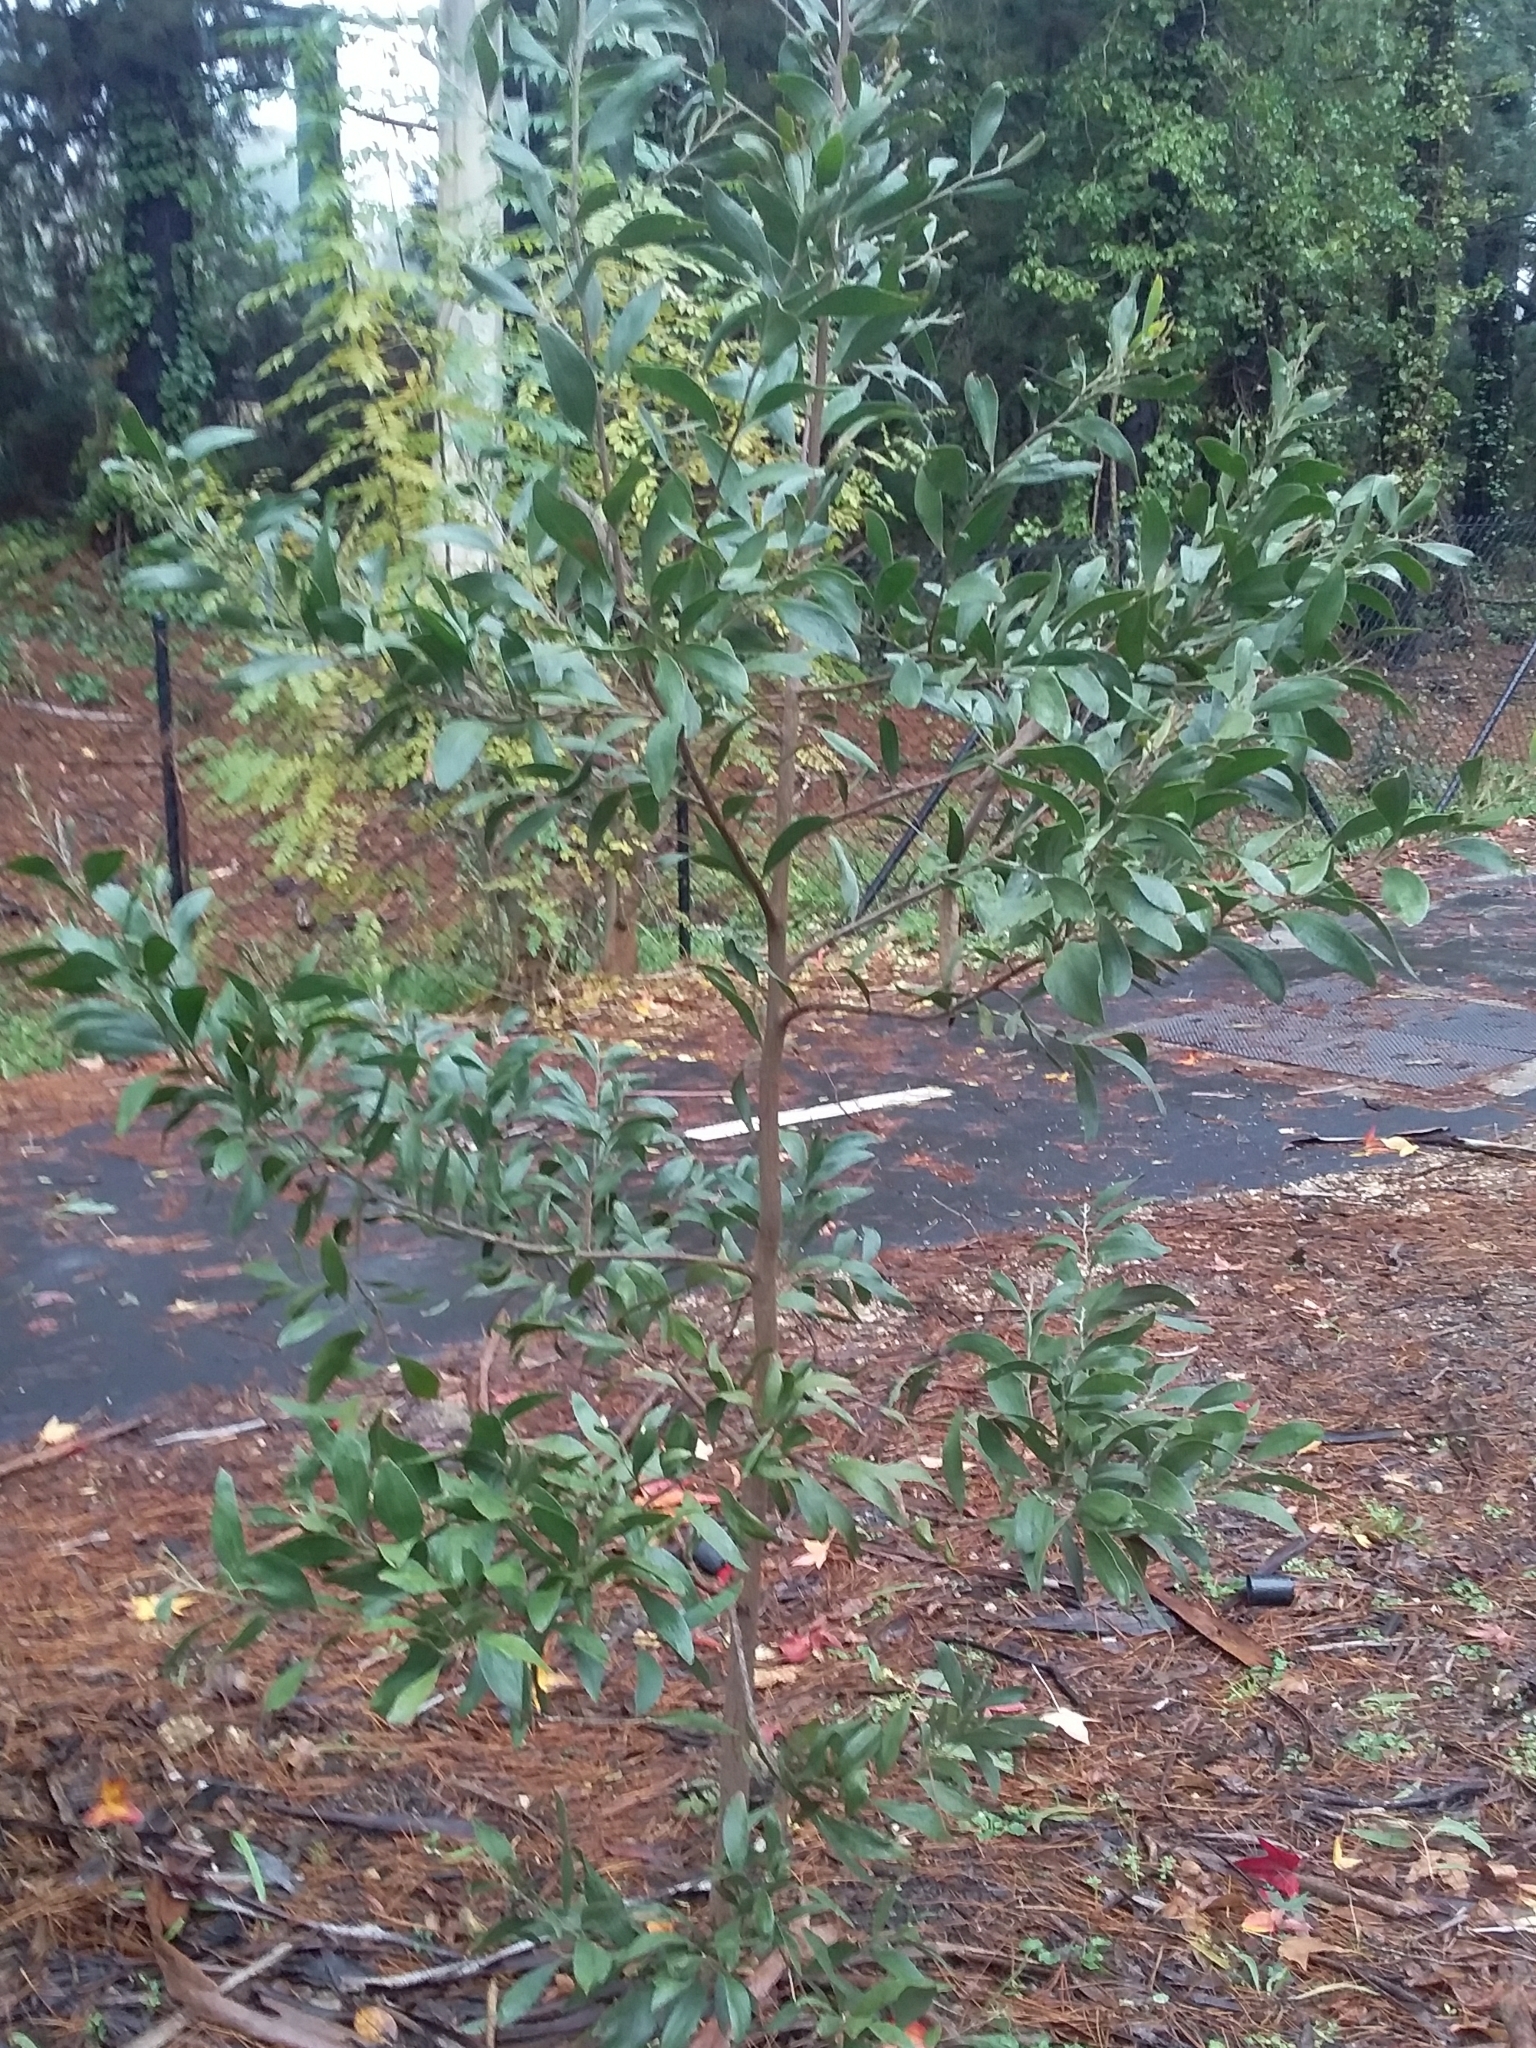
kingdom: Plantae
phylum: Tracheophyta
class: Magnoliopsida
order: Fabales
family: Fabaceae
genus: Acacia
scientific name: Acacia melanoxylon
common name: Blackwood
